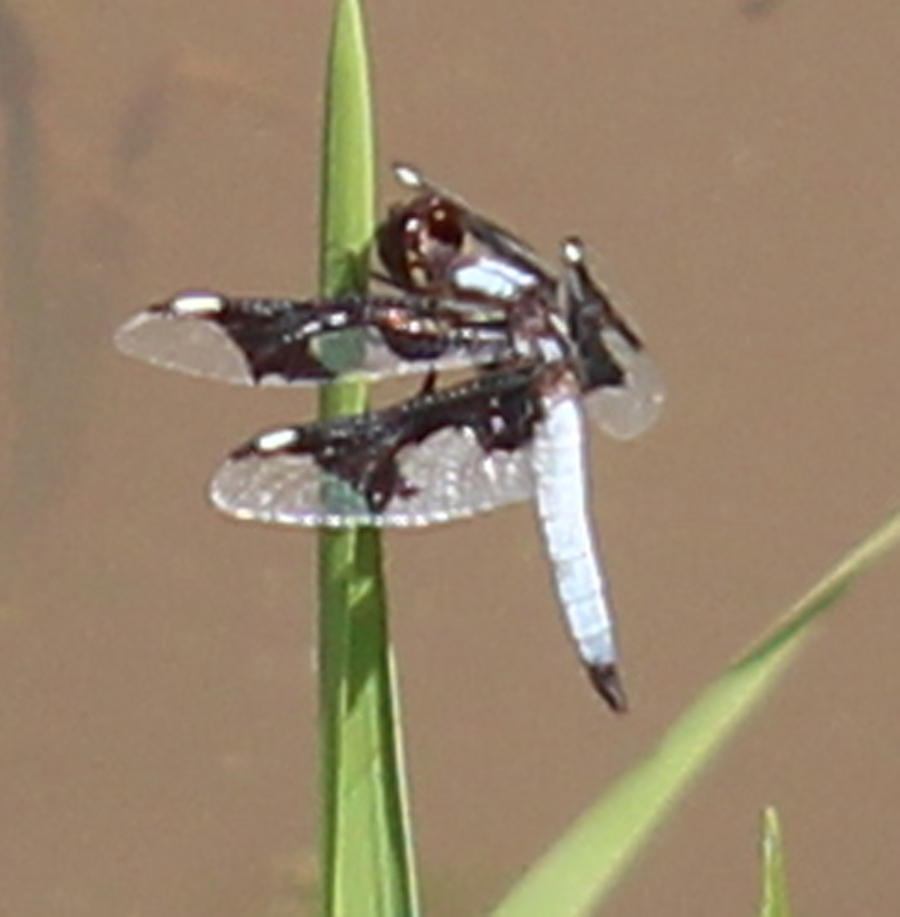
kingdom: Animalia
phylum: Arthropoda
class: Insecta
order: Odonata
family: Libellulidae
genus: Palpopleura
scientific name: Palpopleura portia
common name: Portia widow
